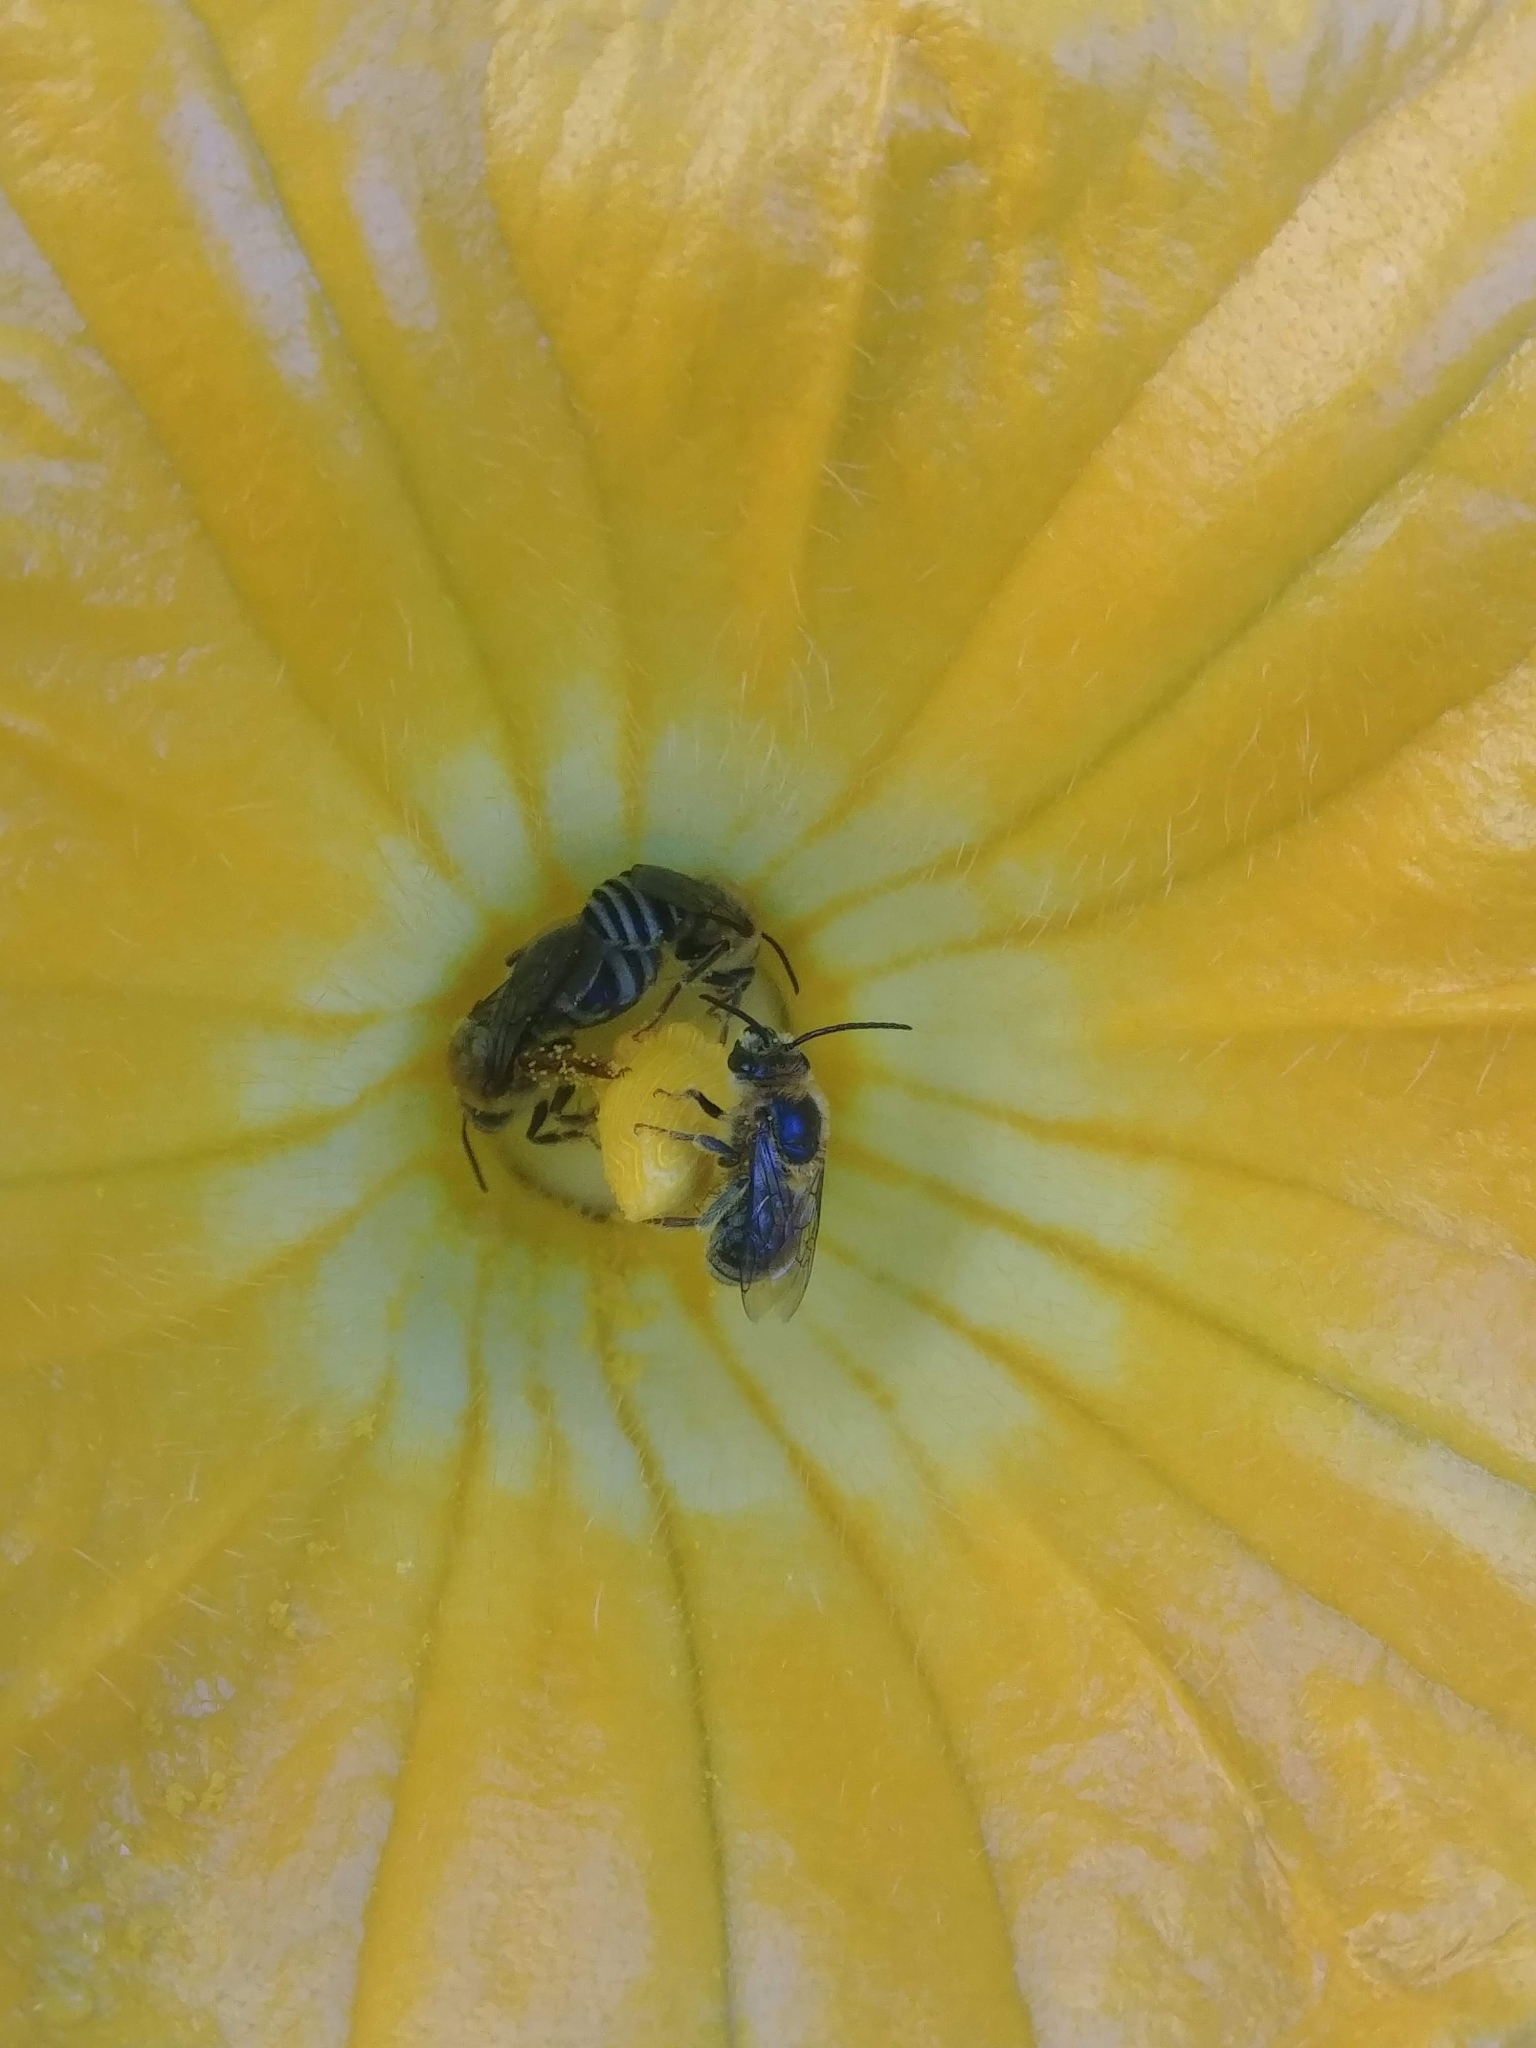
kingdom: Animalia
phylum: Arthropoda
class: Insecta
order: Hymenoptera
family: Apidae
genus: Peponapis
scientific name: Peponapis pruinosa
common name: Pruinose squash bee
